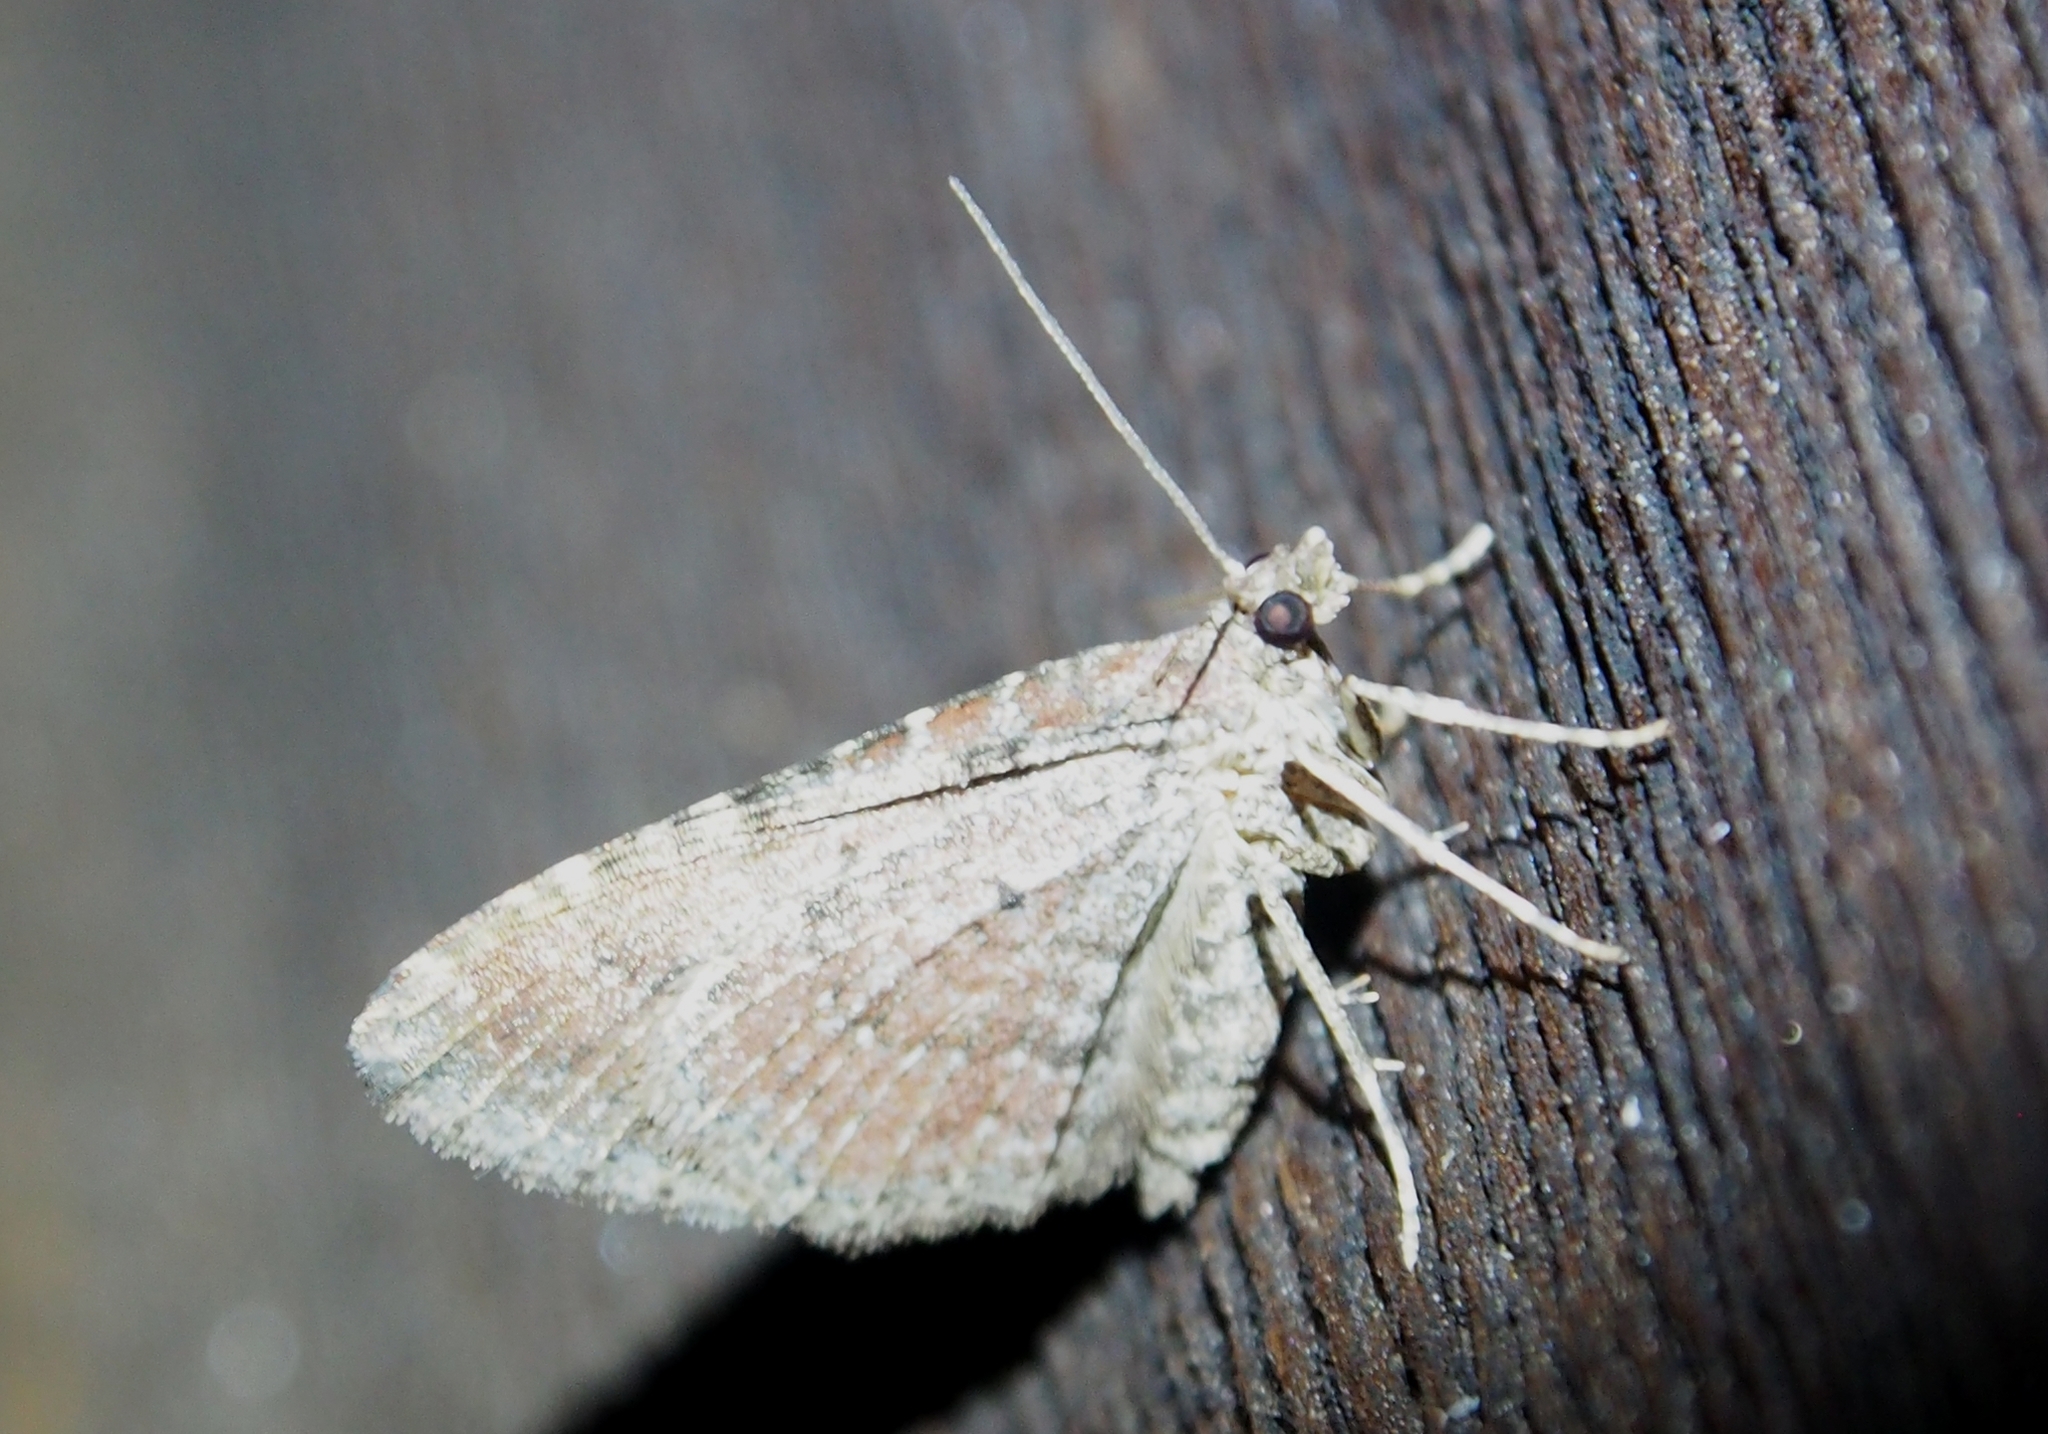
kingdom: Animalia
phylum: Arthropoda
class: Insecta
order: Lepidoptera
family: Geometridae
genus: Orthonama
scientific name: Orthonama obstipata
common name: The gem
